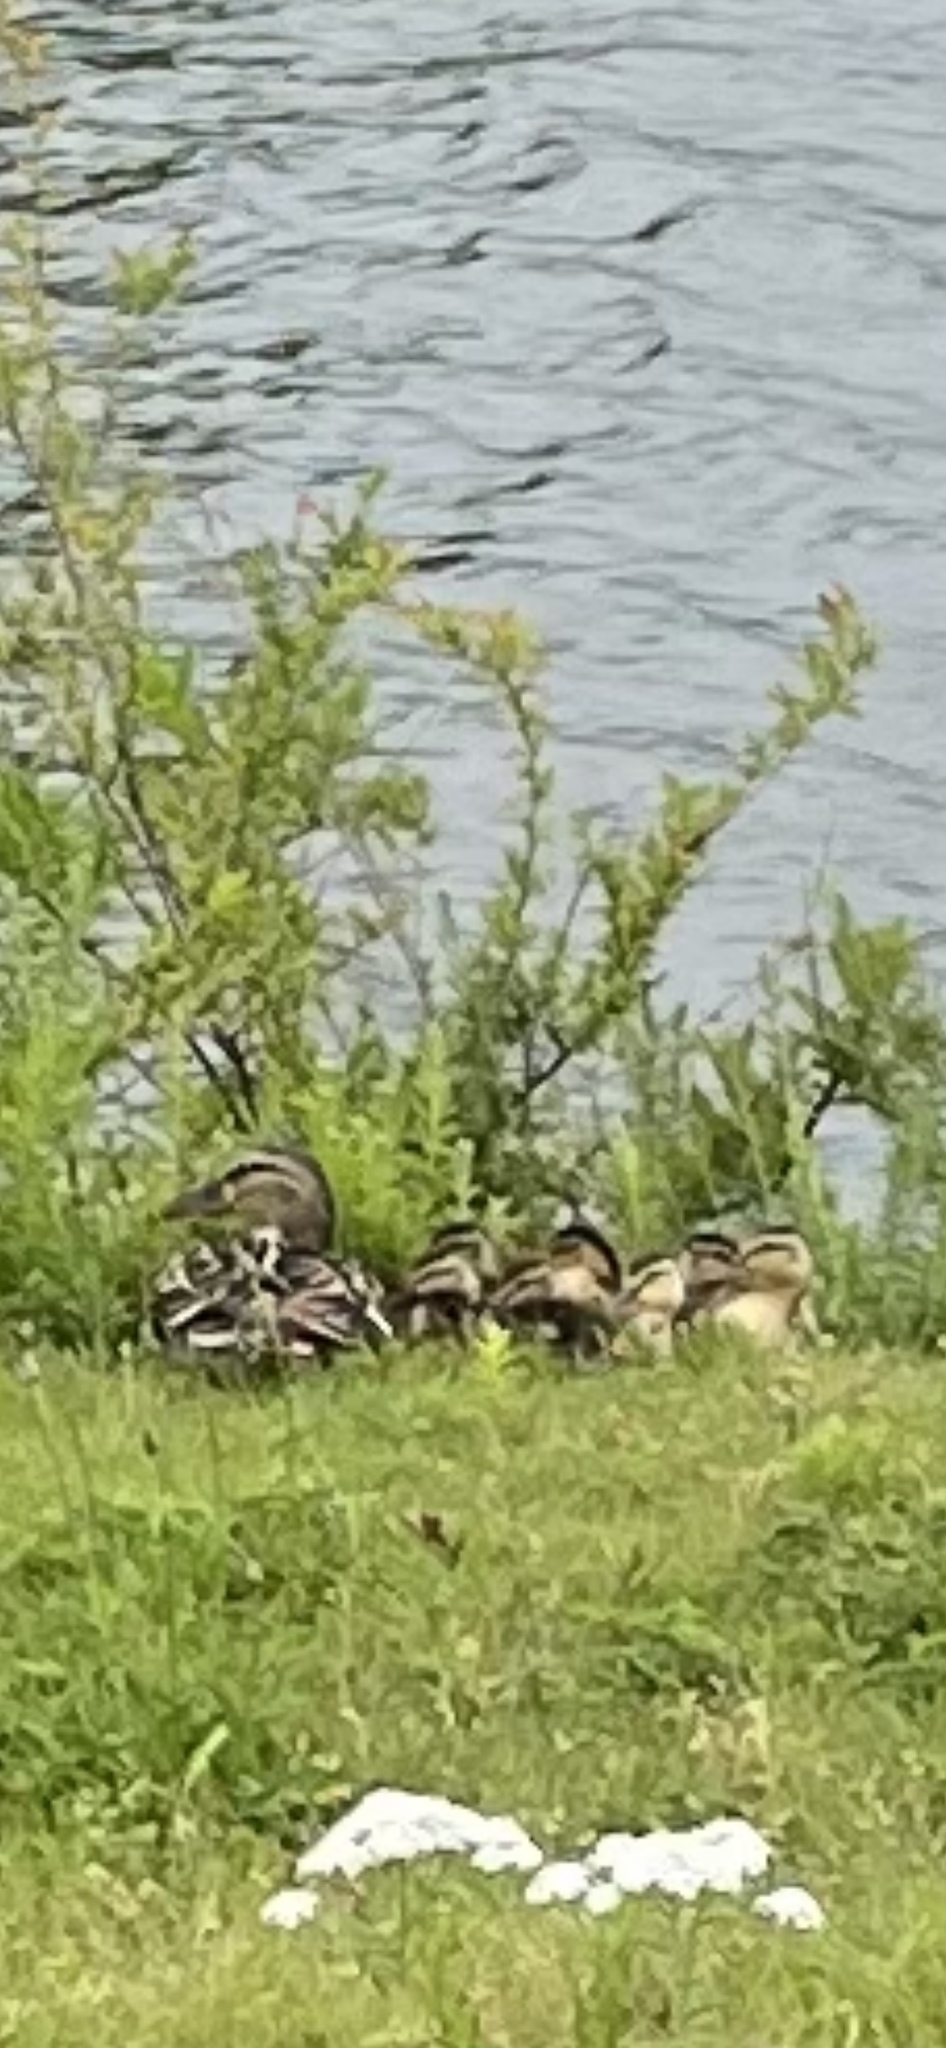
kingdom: Animalia
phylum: Chordata
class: Aves
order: Anseriformes
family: Anatidae
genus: Anas
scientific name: Anas platyrhynchos
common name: Mallard
